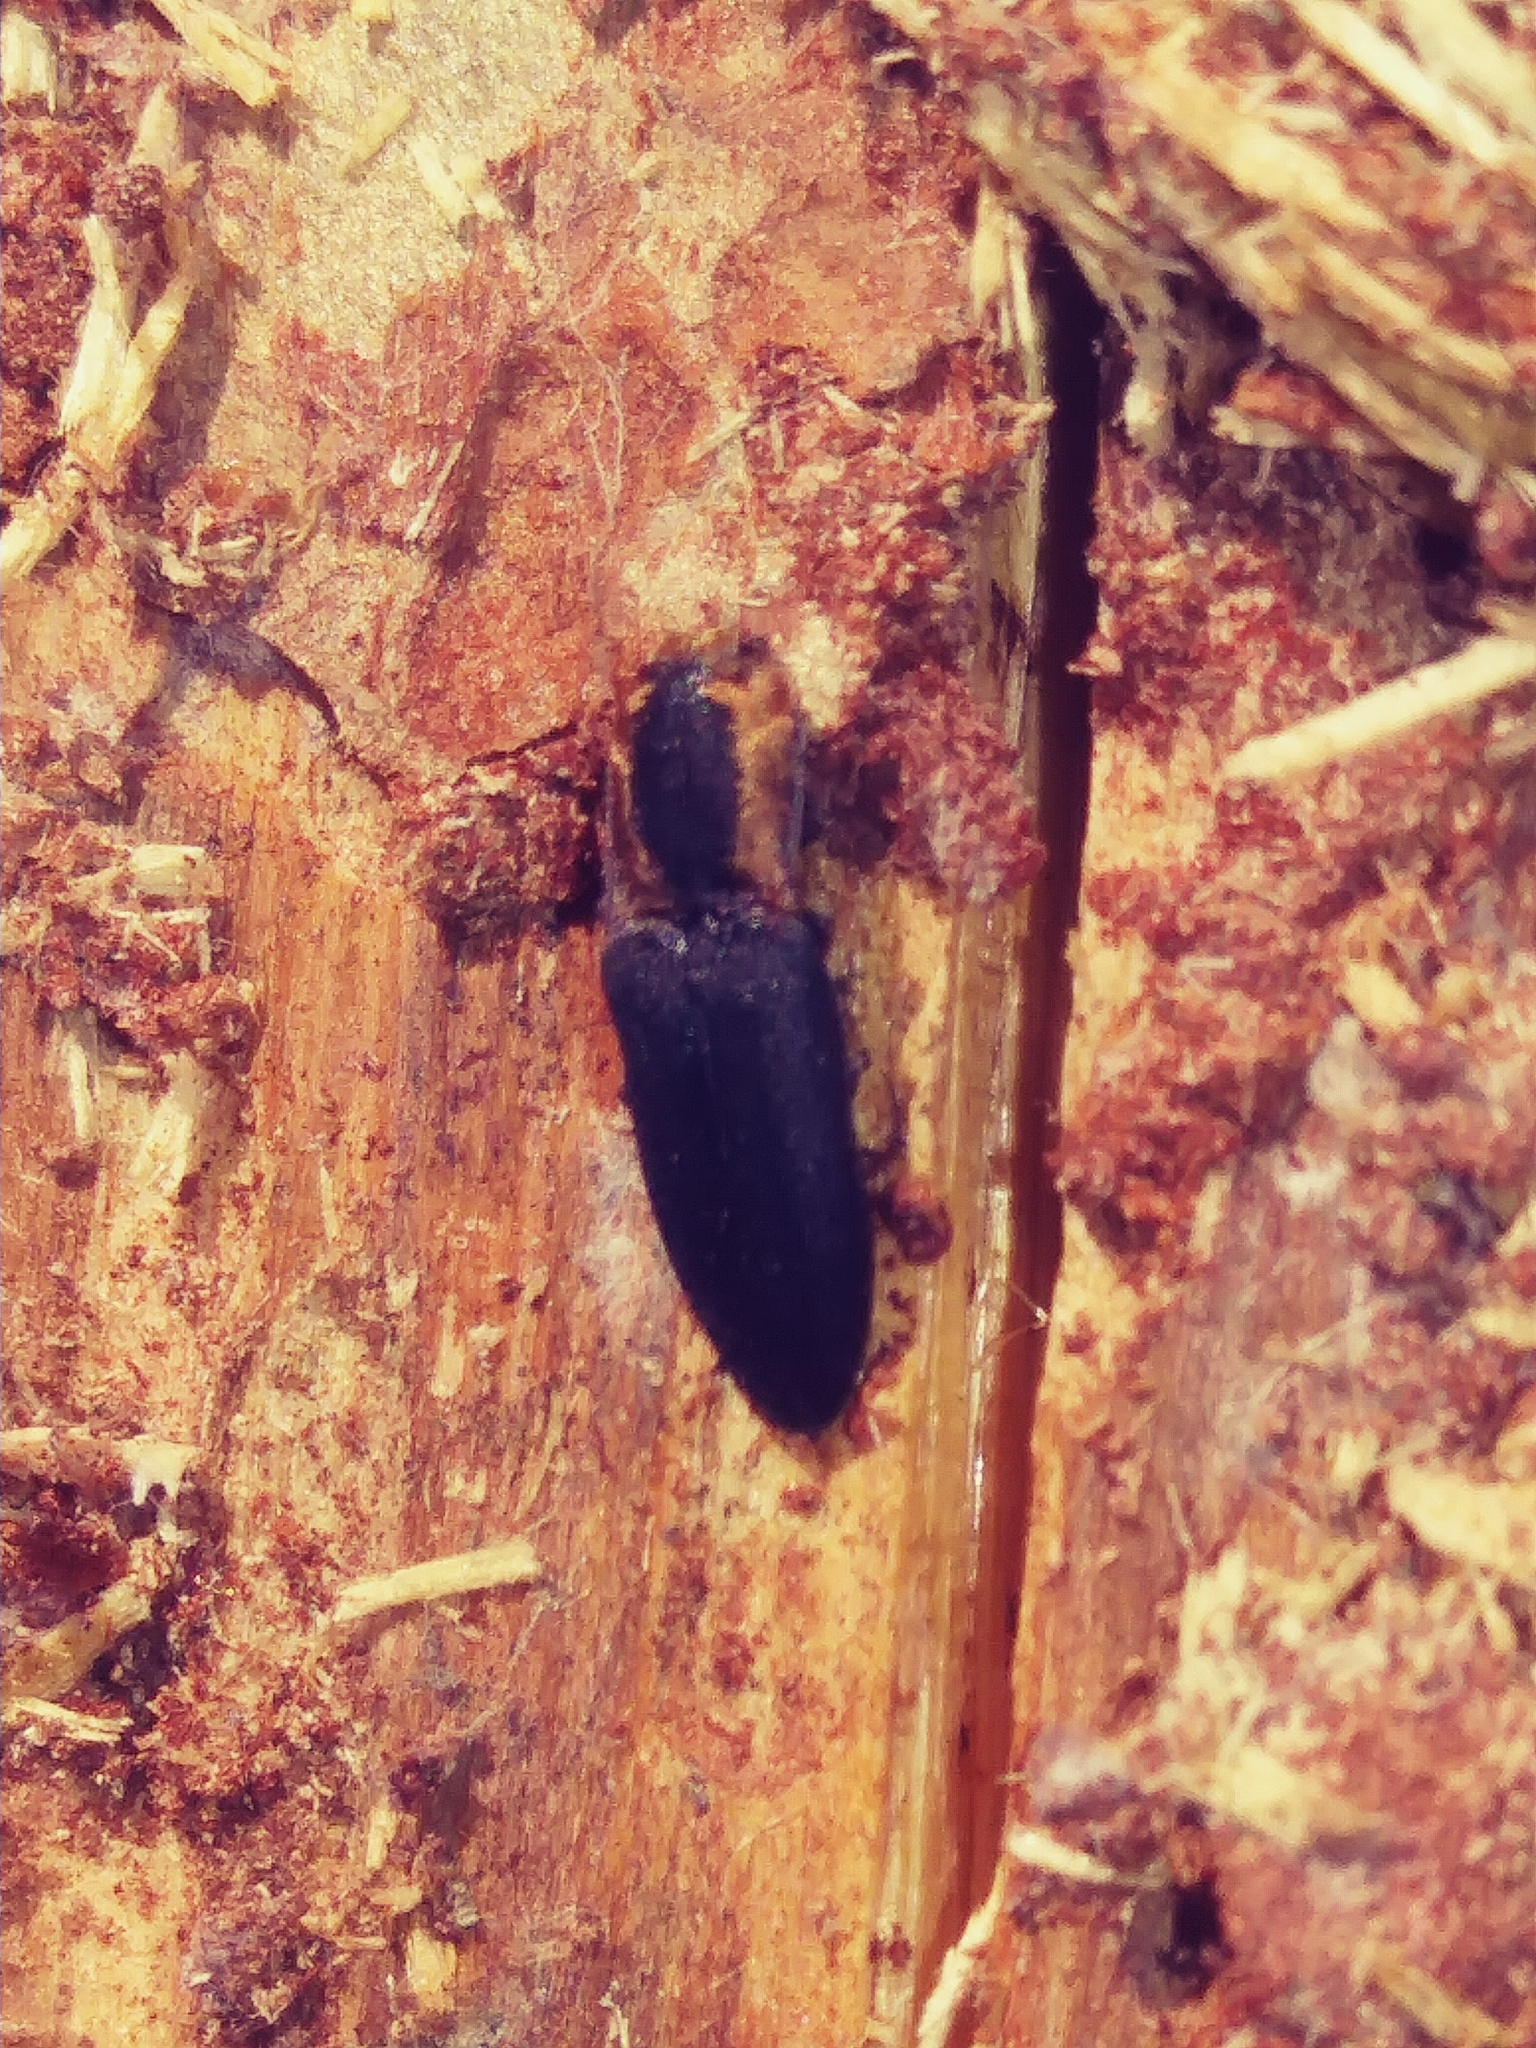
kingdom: Animalia
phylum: Arthropoda
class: Insecta
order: Coleoptera
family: Elateridae
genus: Lacon
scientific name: Lacon discoideus
